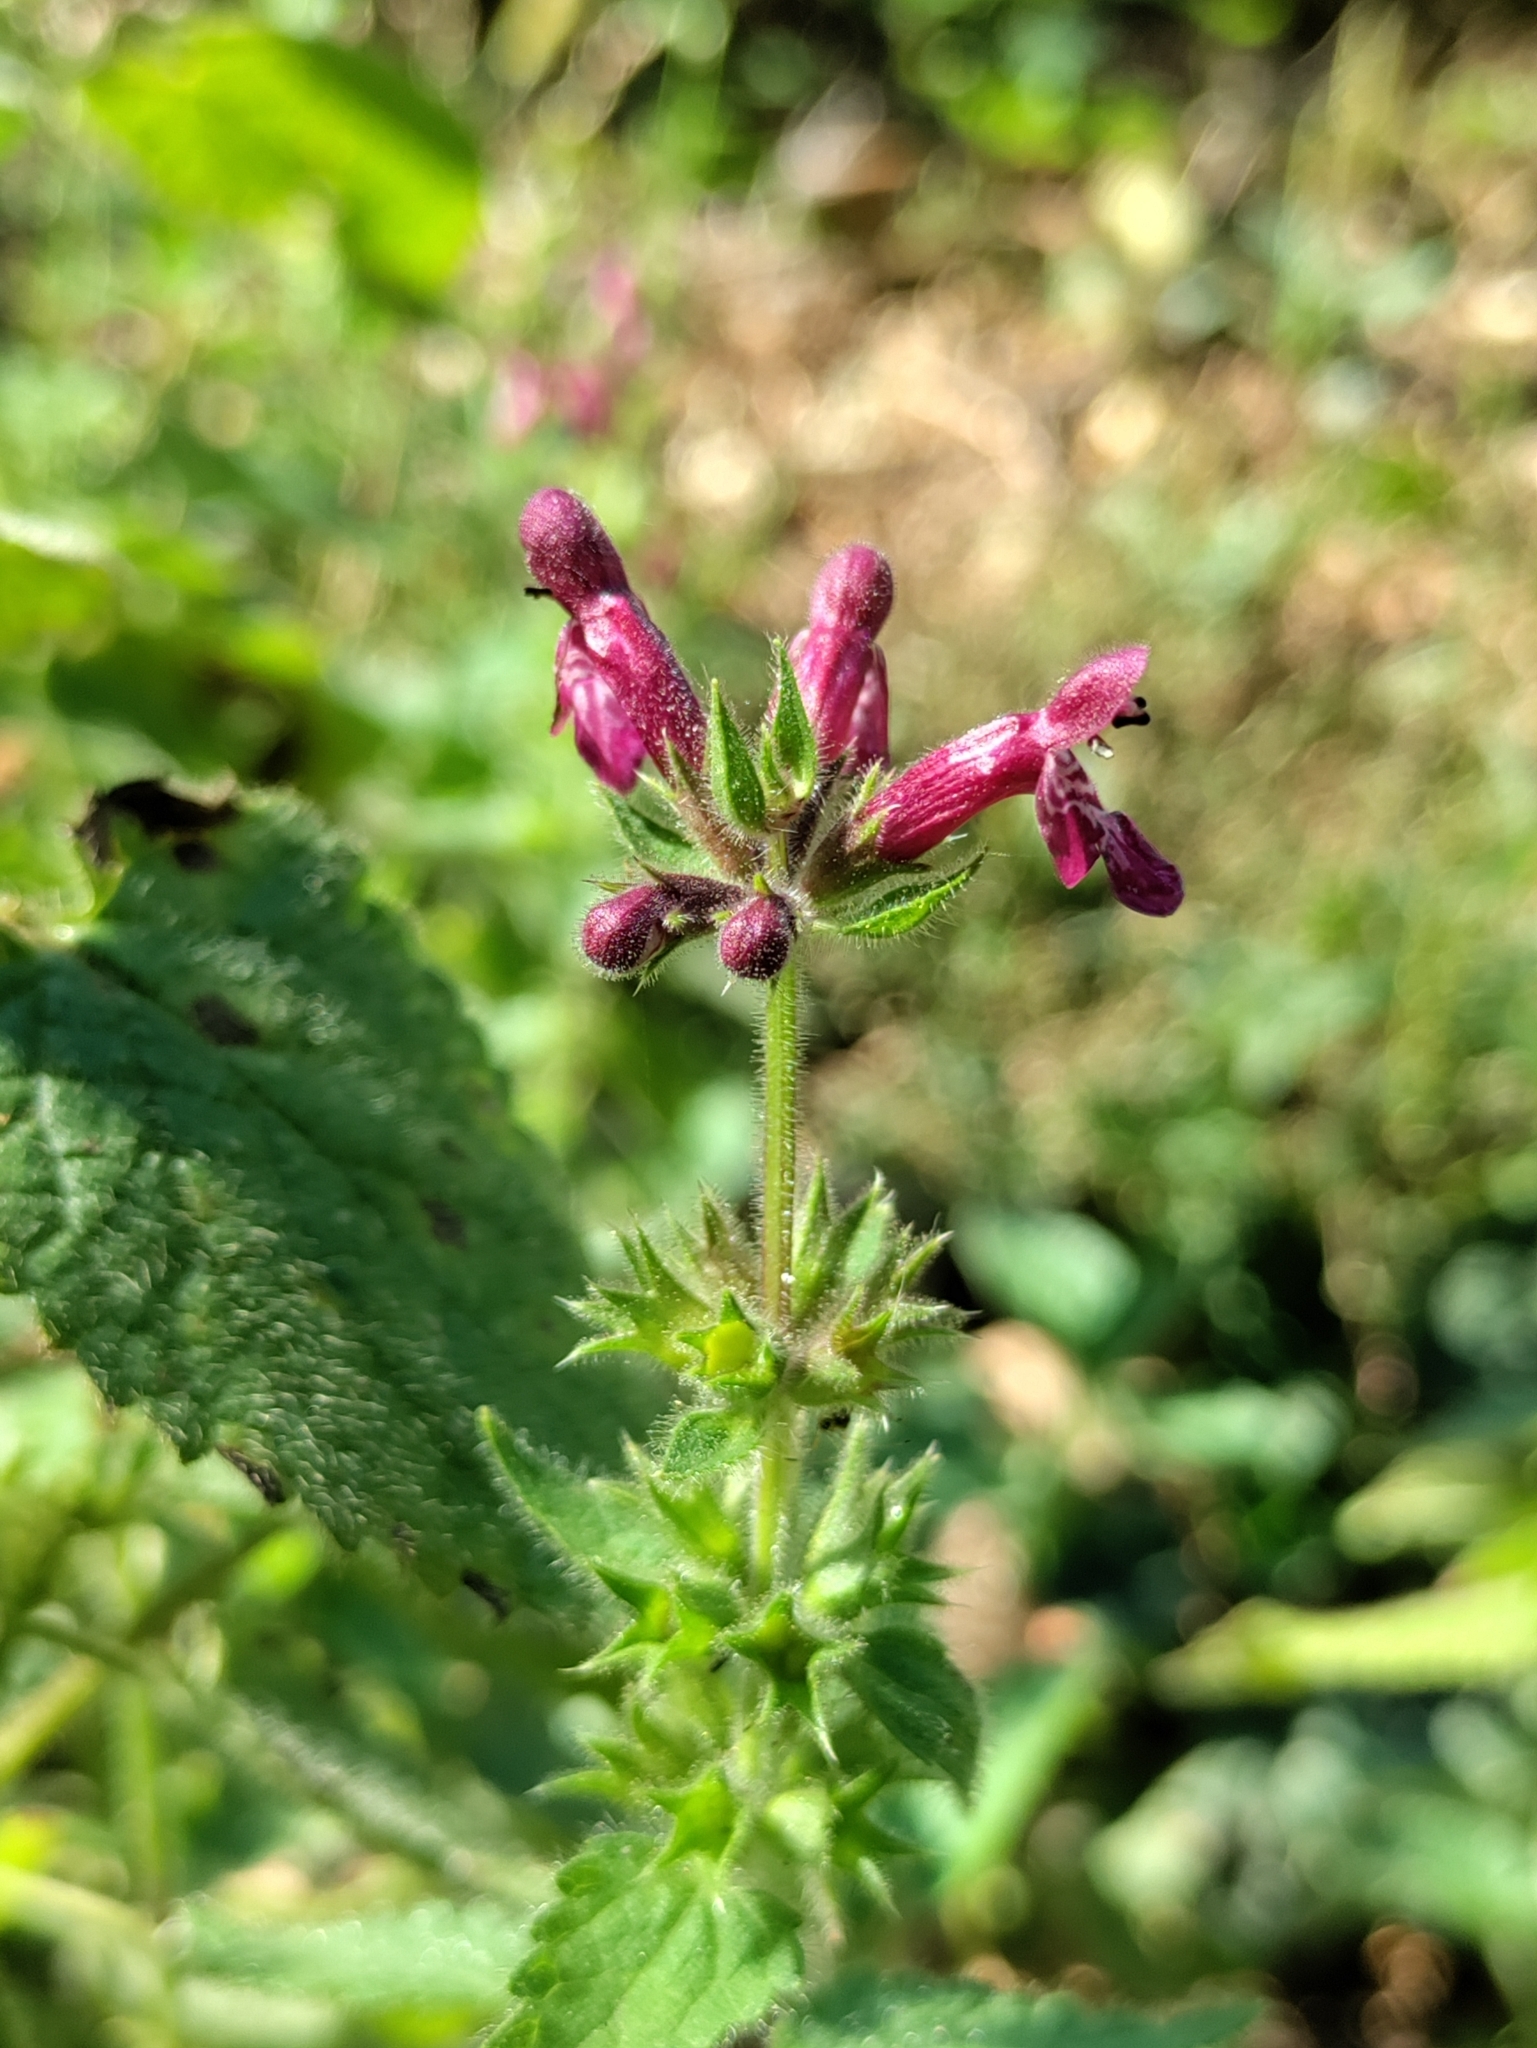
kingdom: Plantae
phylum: Tracheophyta
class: Magnoliopsida
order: Lamiales
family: Lamiaceae
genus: Stachys
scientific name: Stachys sylvatica
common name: Hedge woundwort
